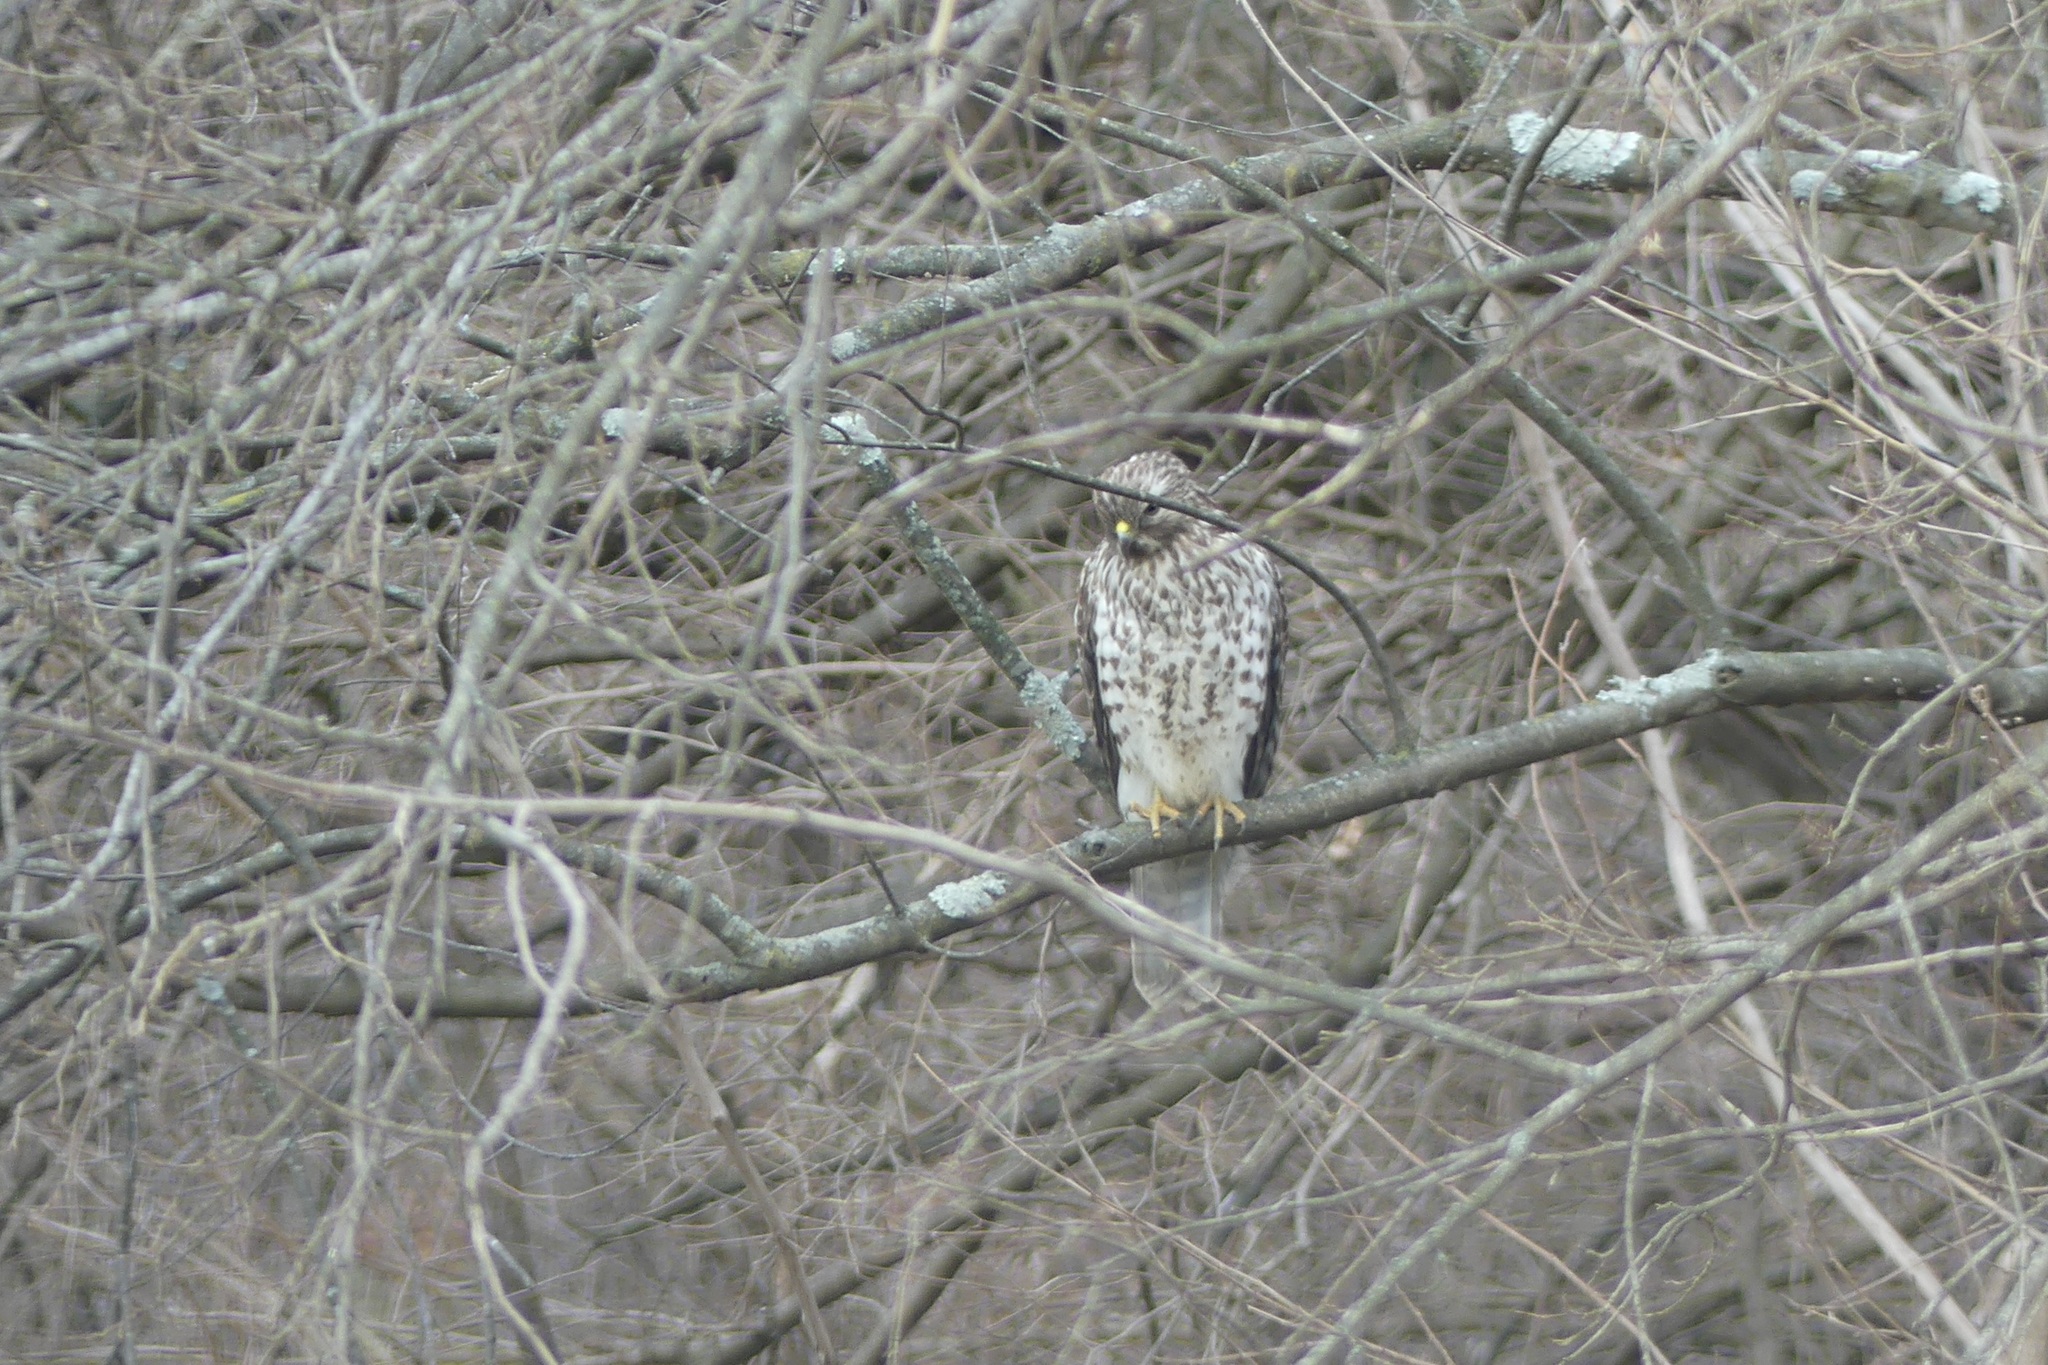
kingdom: Animalia
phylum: Chordata
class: Aves
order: Accipitriformes
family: Accipitridae
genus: Buteo
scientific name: Buteo lineatus
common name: Red-shouldered hawk
